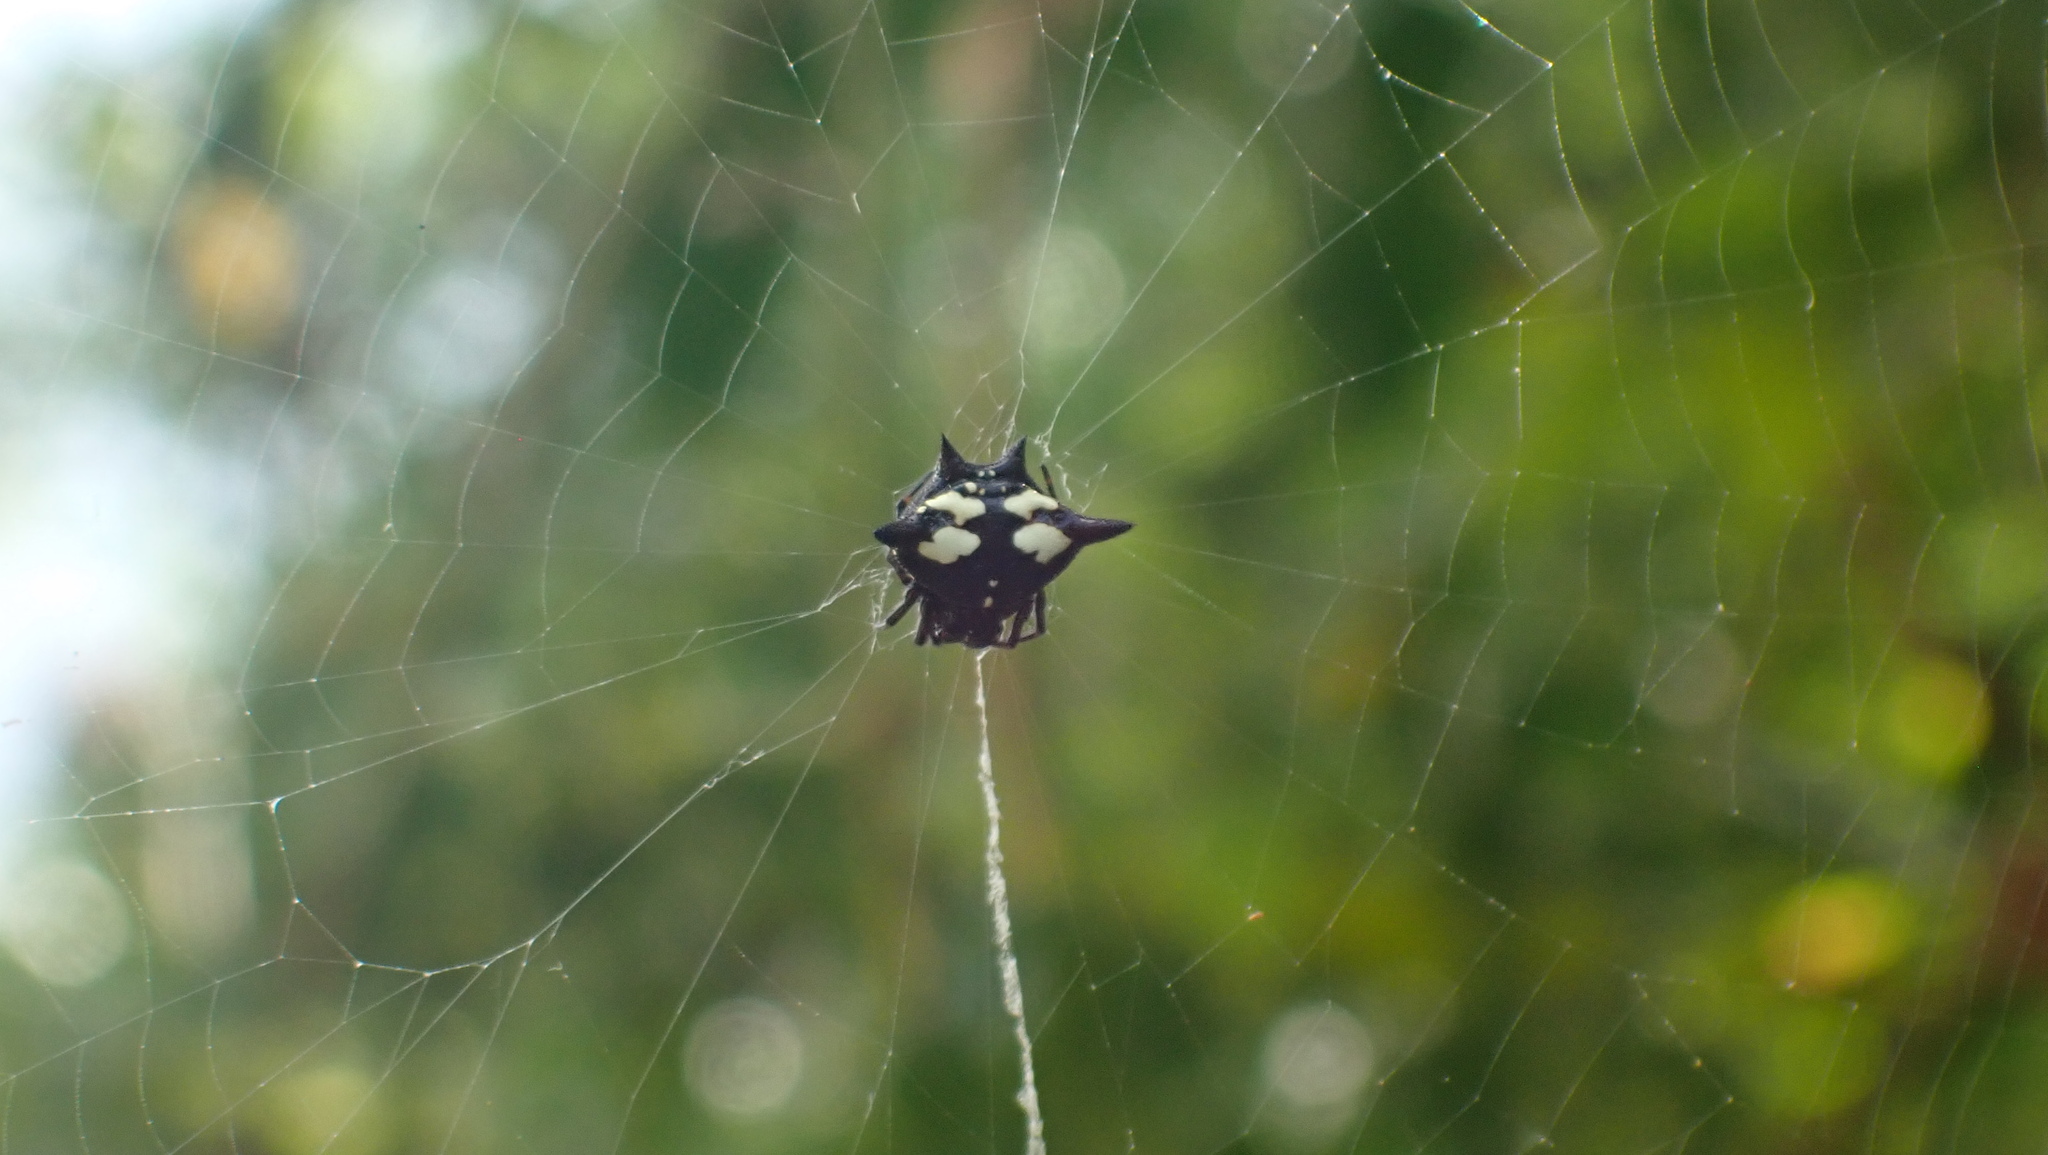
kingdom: Animalia
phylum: Arthropoda
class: Arachnida
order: Araneae
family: Araneidae
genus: Gasteracantha
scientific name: Gasteracantha cancriformis
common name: Orb weavers
